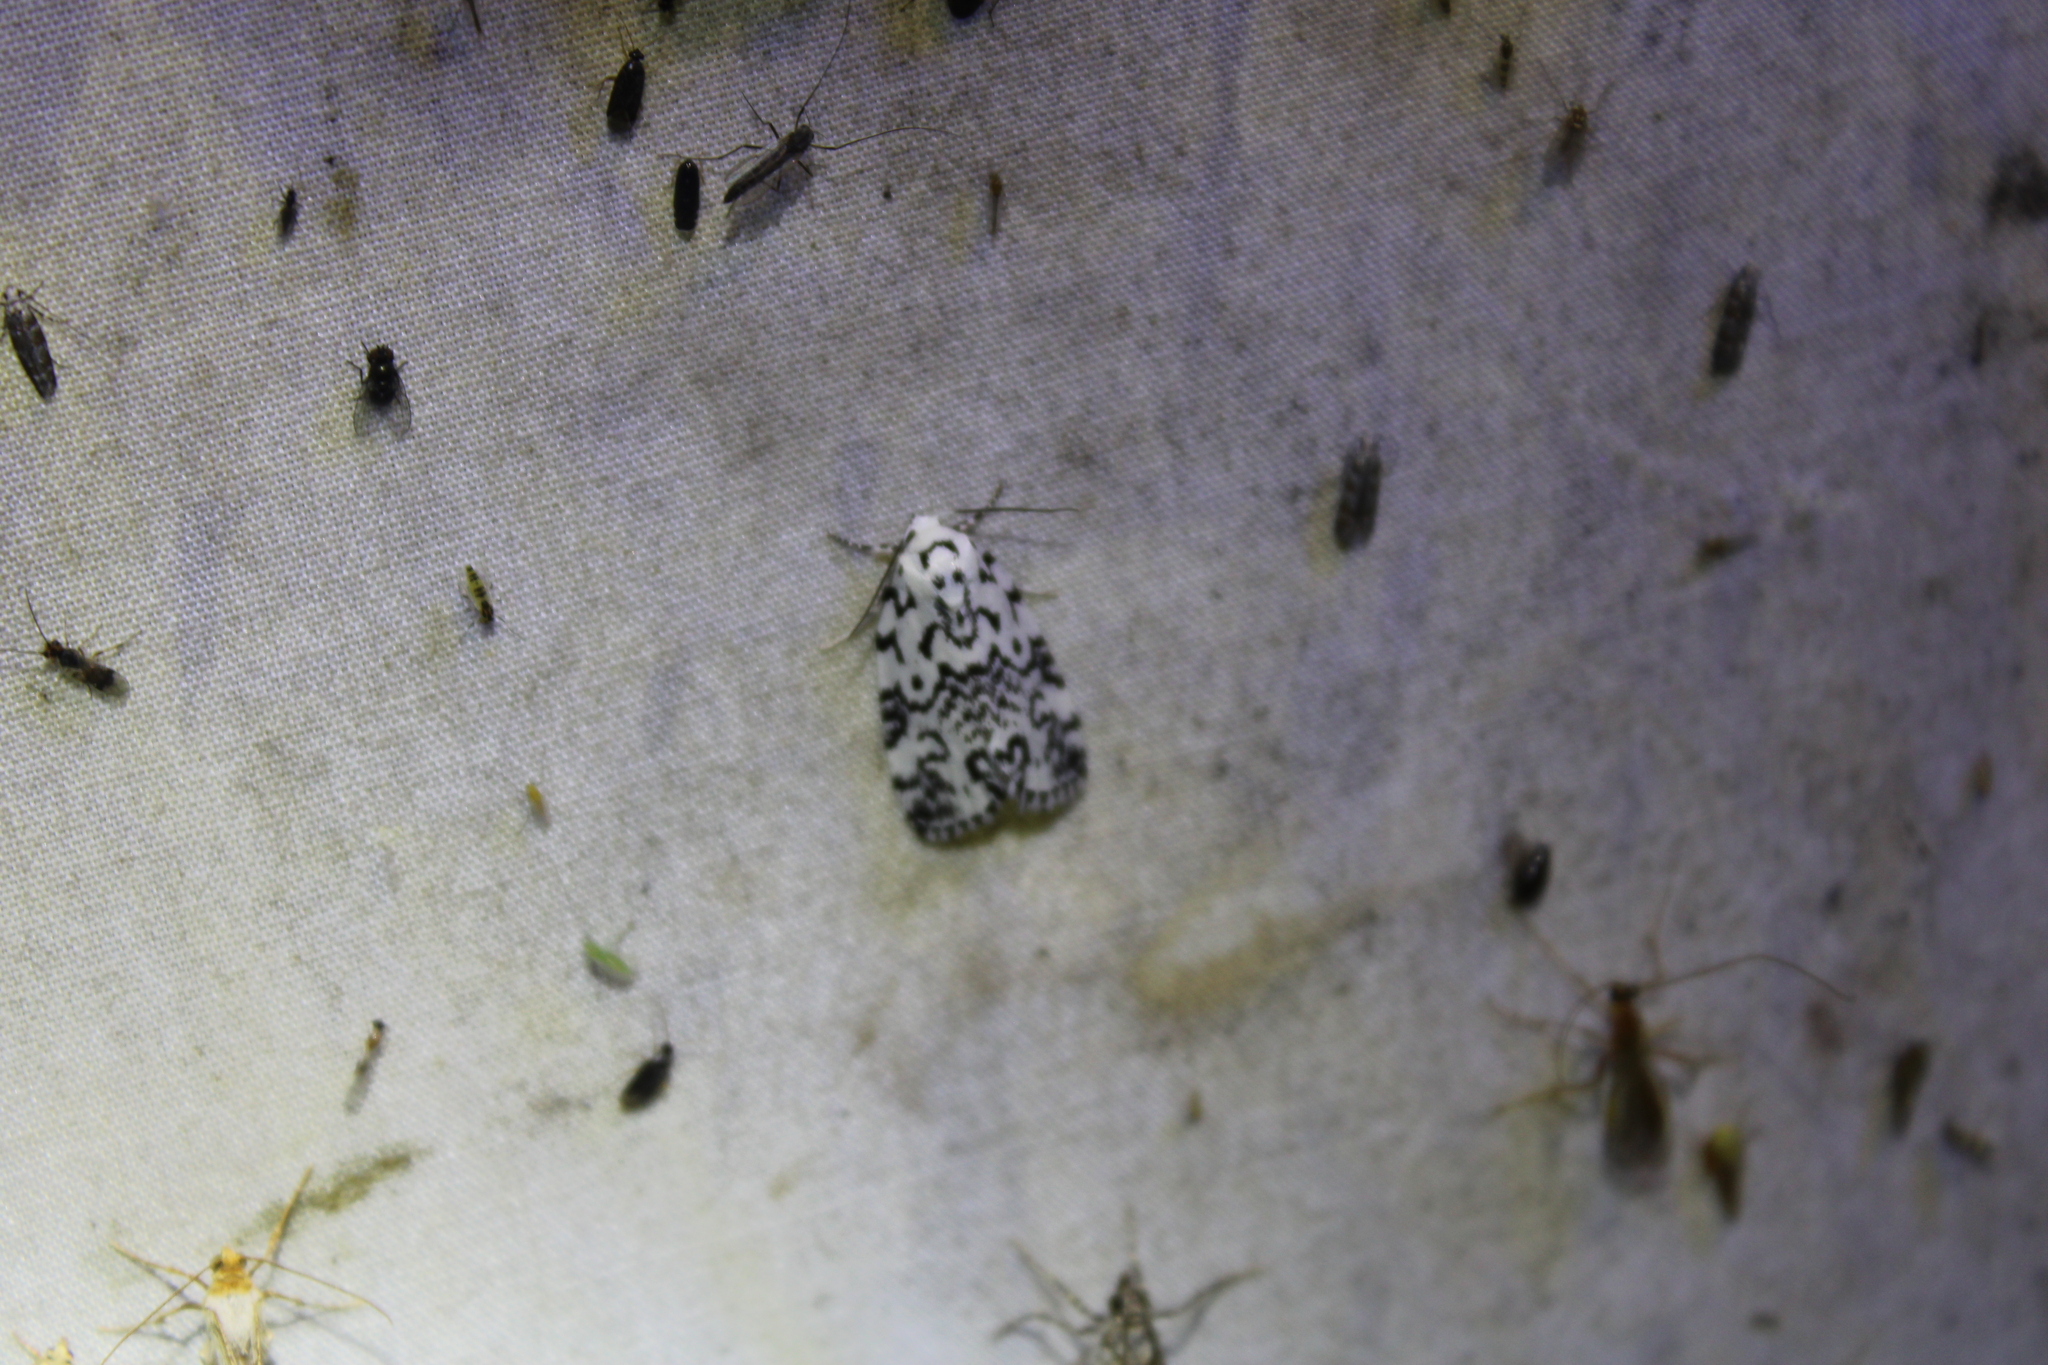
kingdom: Animalia
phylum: Arthropoda
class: Insecta
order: Lepidoptera
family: Noctuidae
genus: Polygrammate
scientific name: Polygrammate hebraeicum
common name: Hebrew moth
